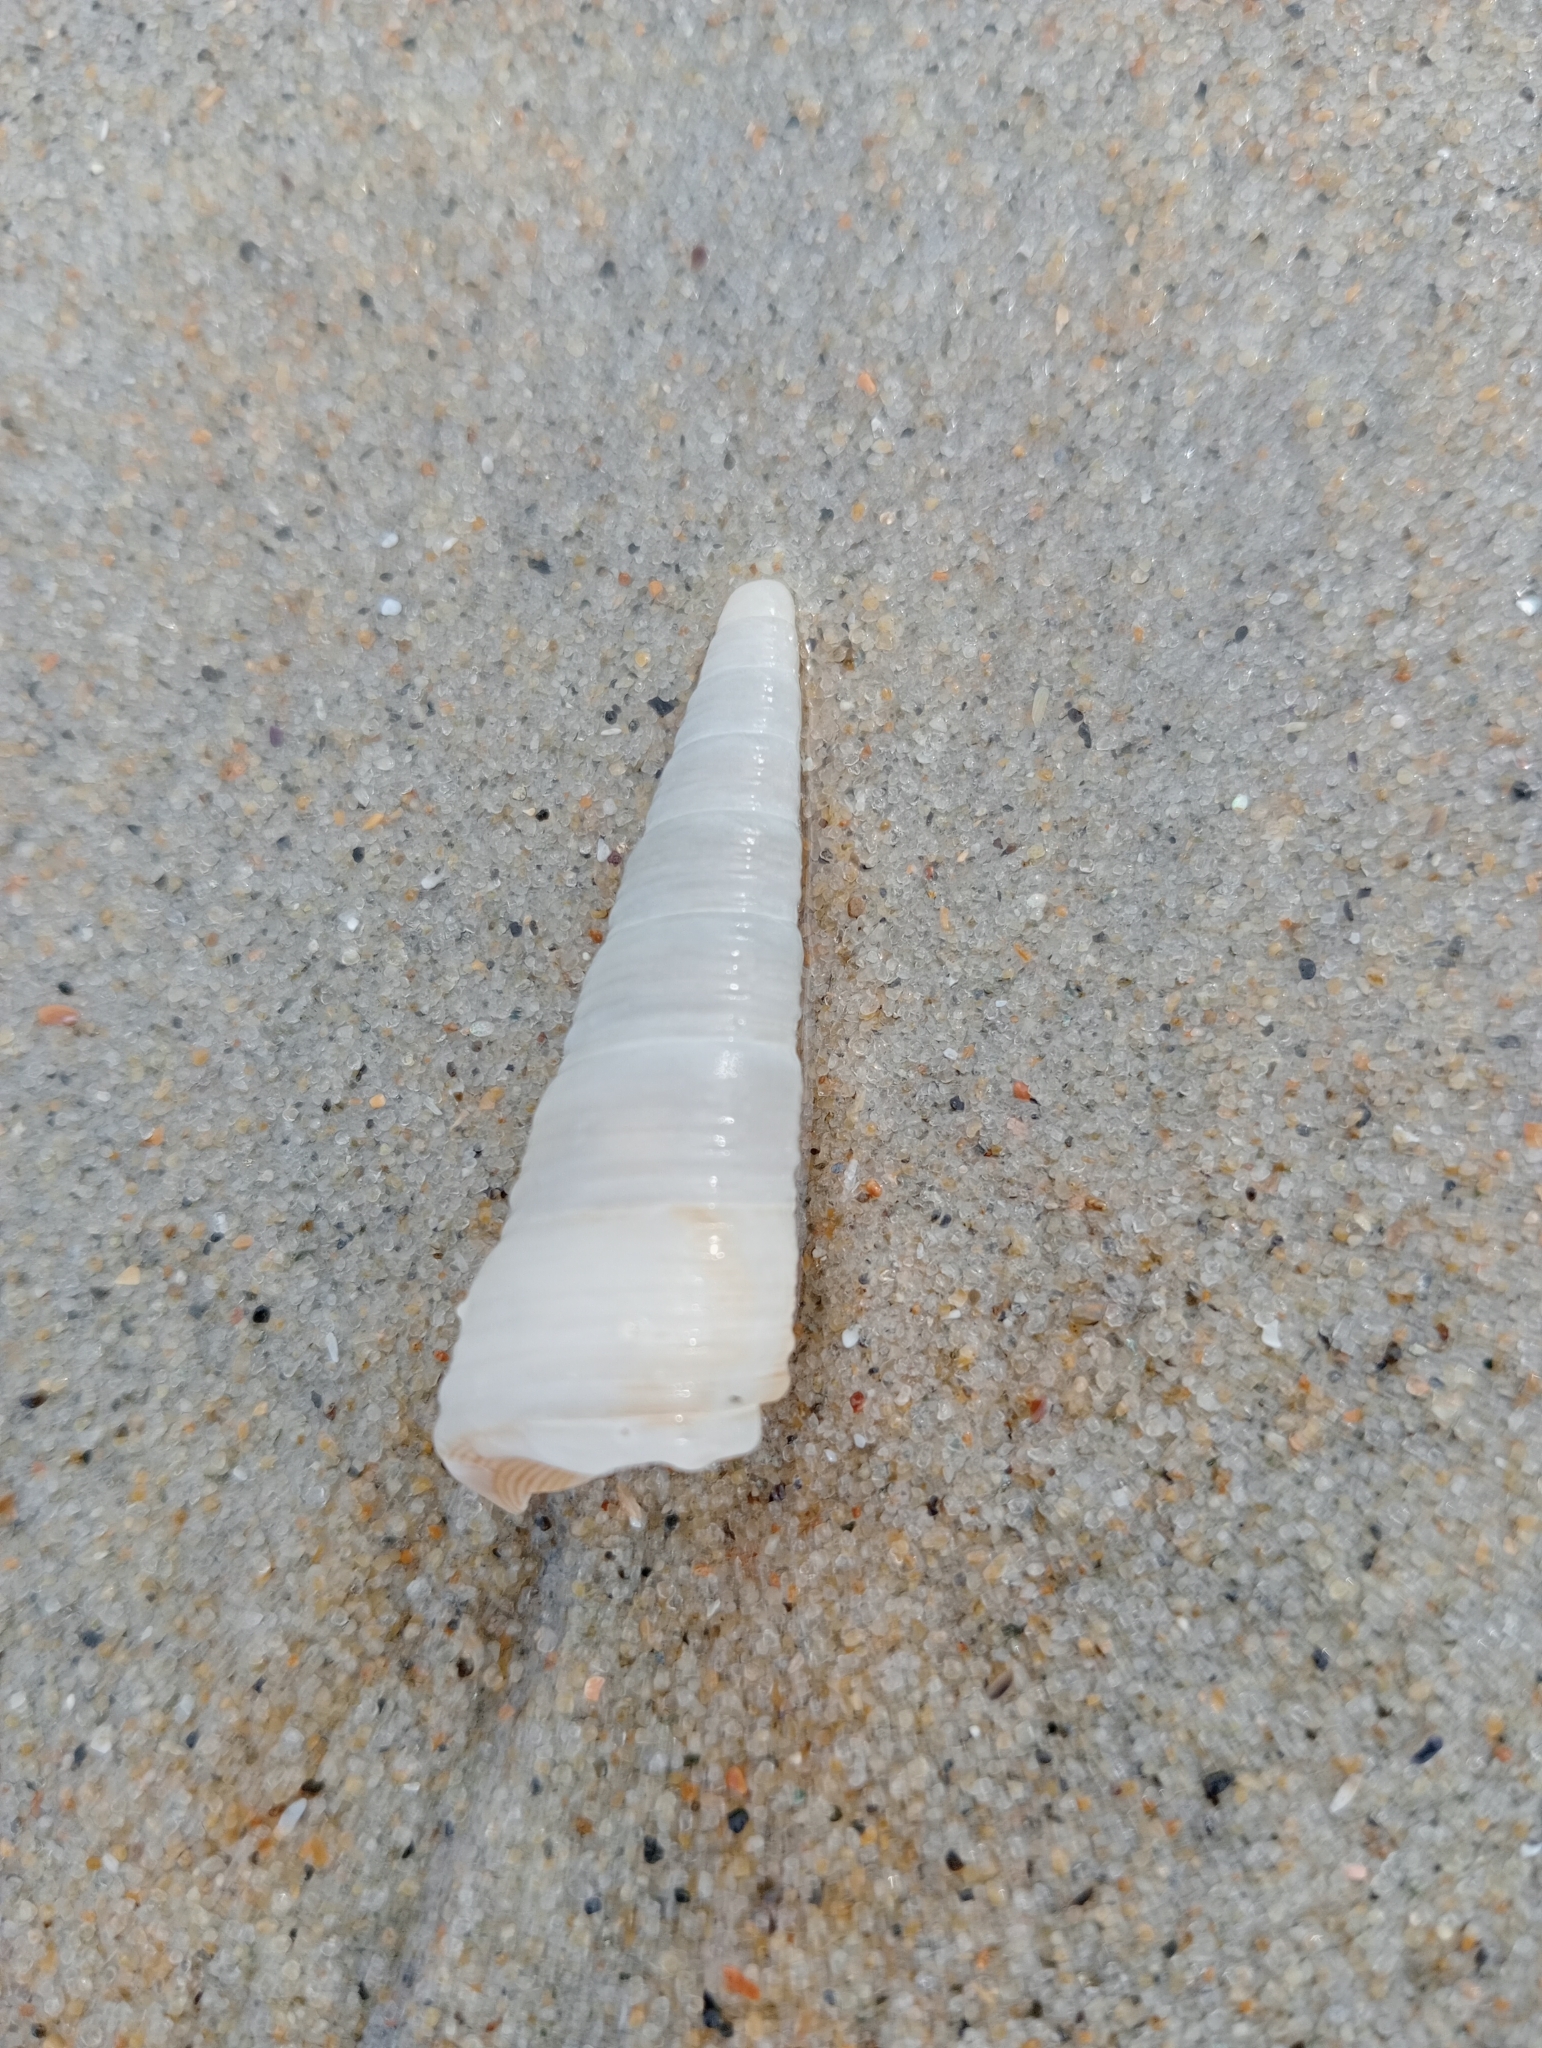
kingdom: Animalia
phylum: Mollusca
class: Gastropoda
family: Turritellidae
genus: Maoricolpus
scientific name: Maoricolpus roseus
